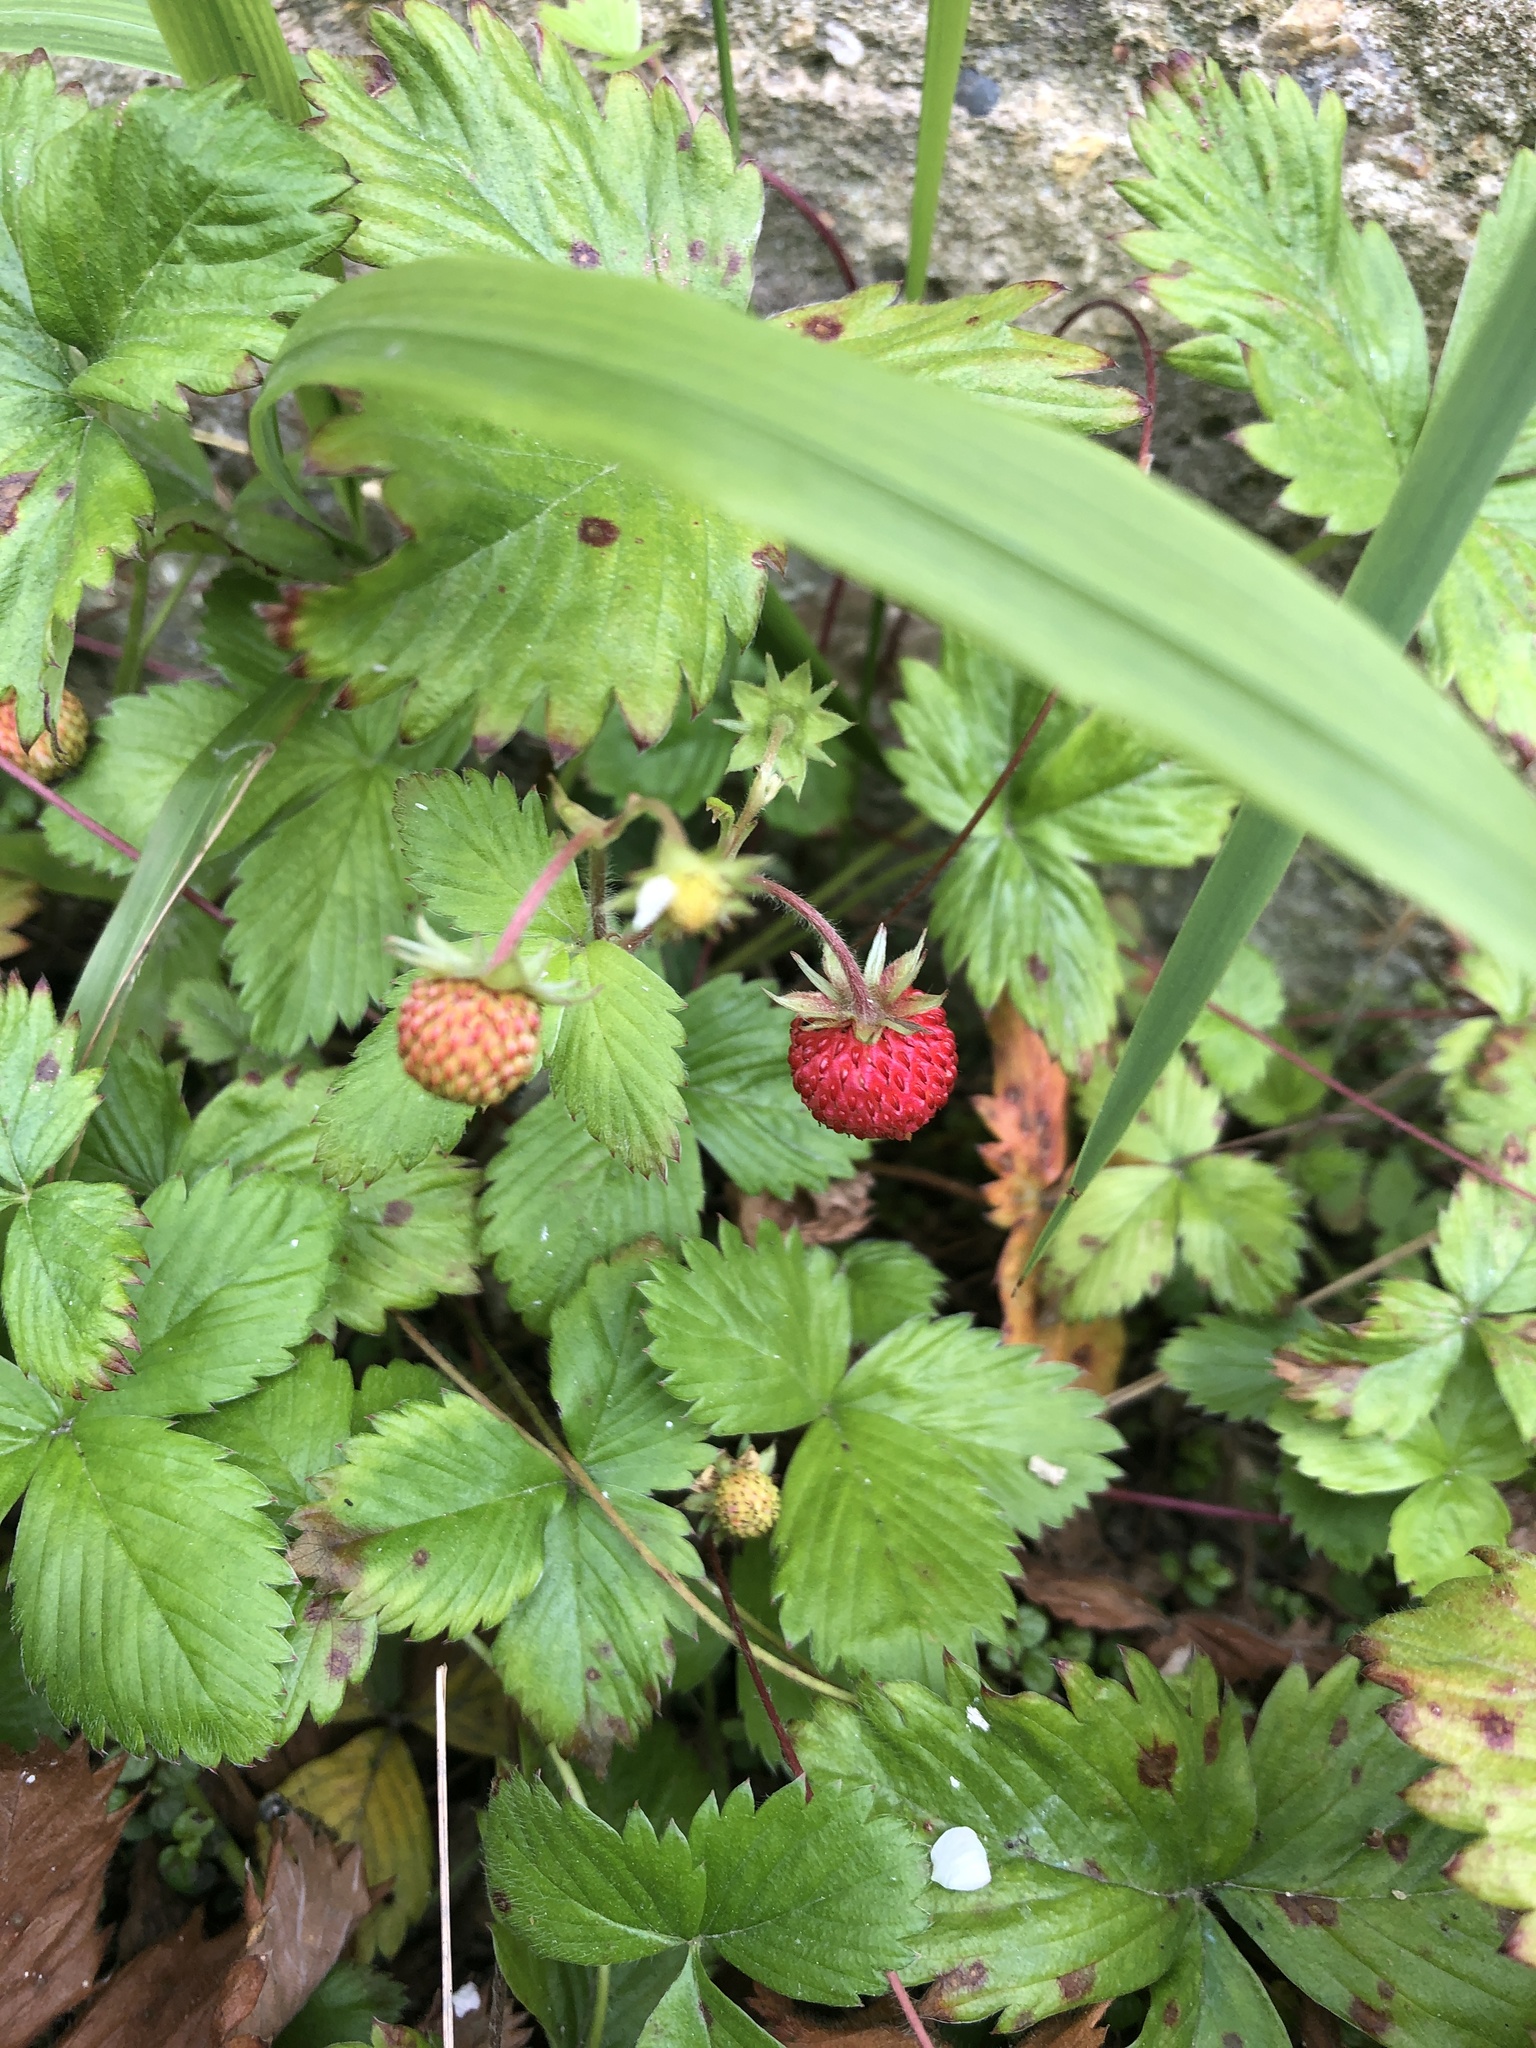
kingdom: Plantae
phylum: Tracheophyta
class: Magnoliopsida
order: Rosales
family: Rosaceae
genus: Fragaria
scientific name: Fragaria vesca
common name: Wild strawberry
